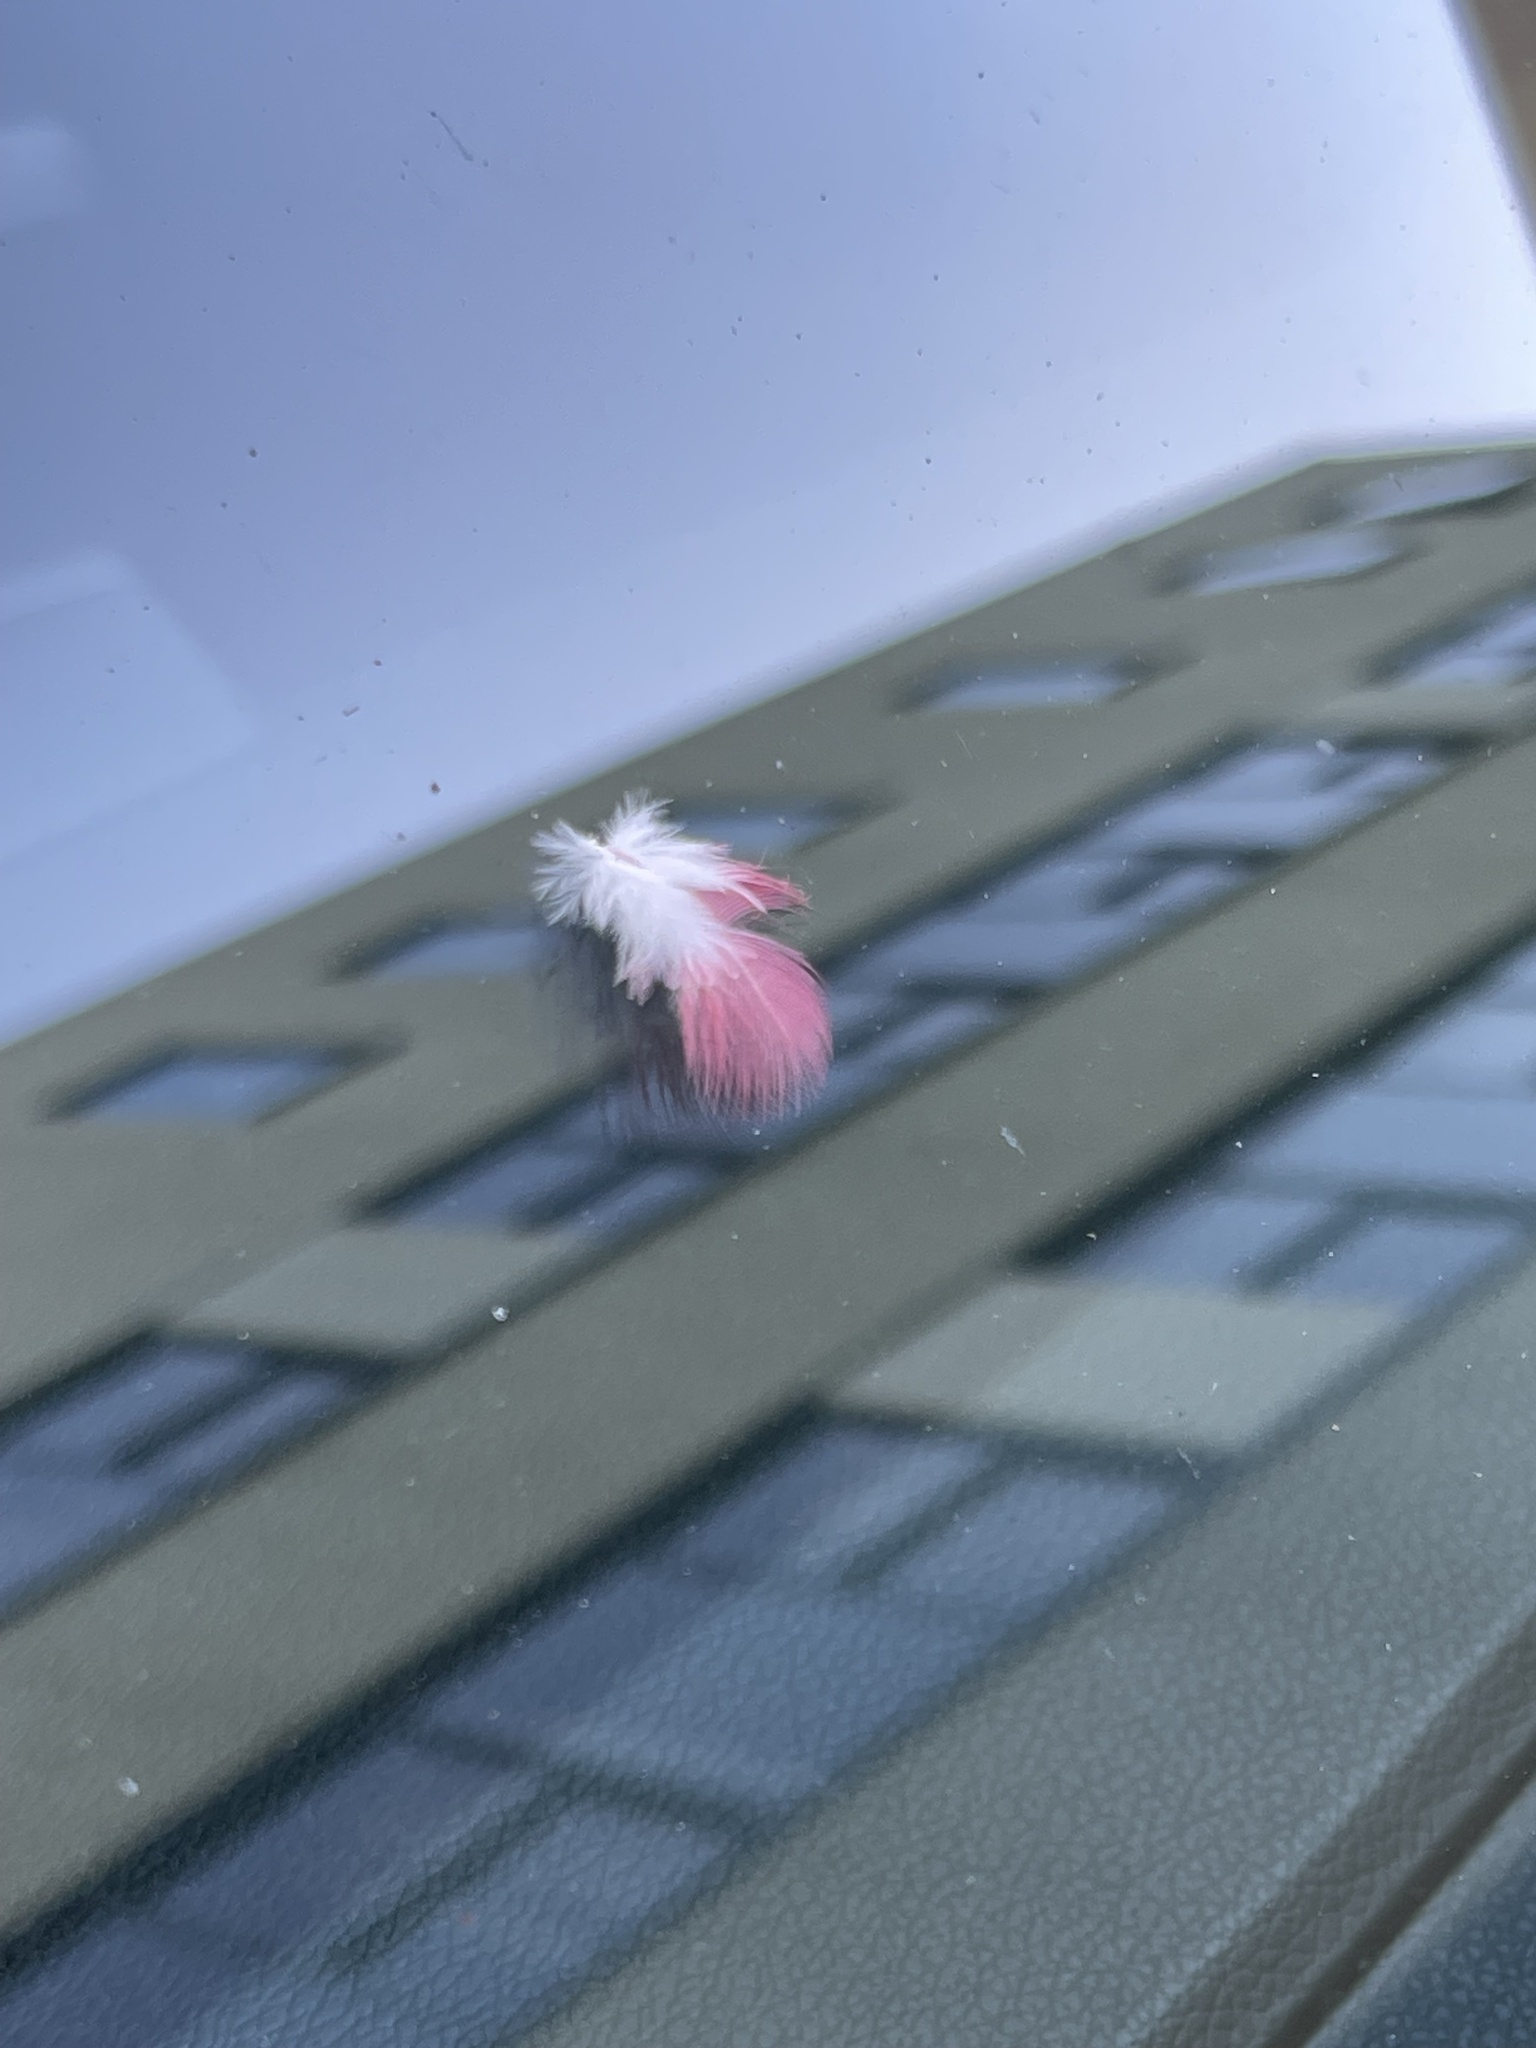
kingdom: Animalia
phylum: Chordata
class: Aves
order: Psittaciformes
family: Psittacidae
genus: Eolophus
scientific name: Eolophus roseicapilla
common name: Galah
